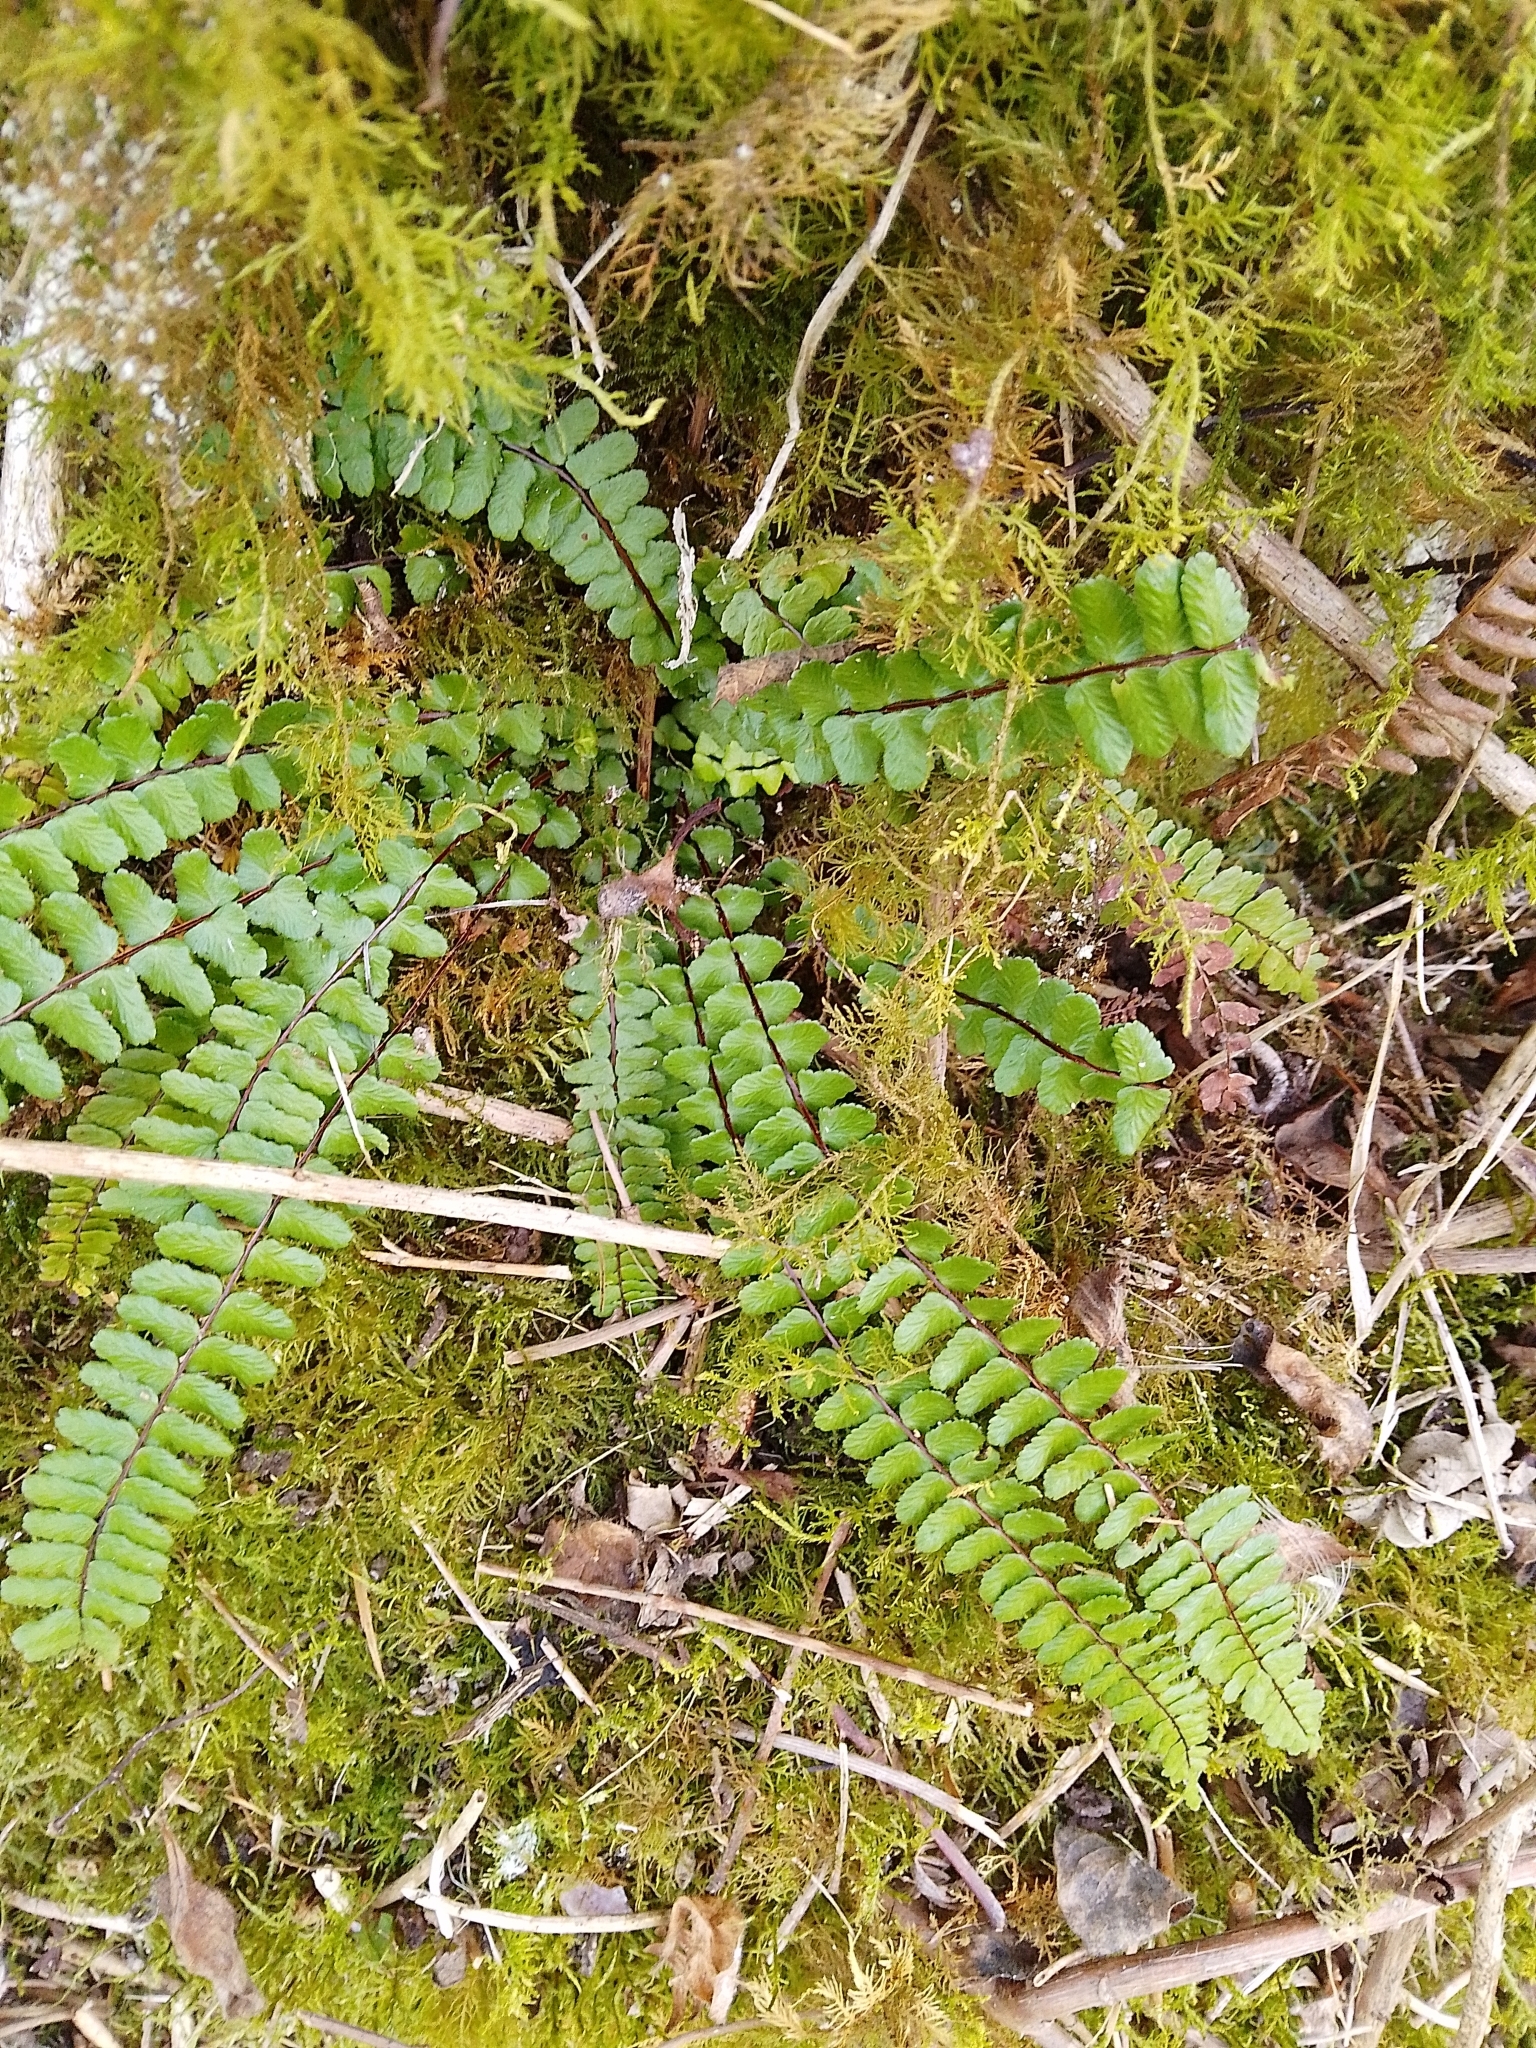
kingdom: Plantae
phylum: Tracheophyta
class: Polypodiopsida
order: Polypodiales
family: Aspleniaceae
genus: Asplenium
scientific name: Asplenium trichomanes
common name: Maidenhair spleenwort
